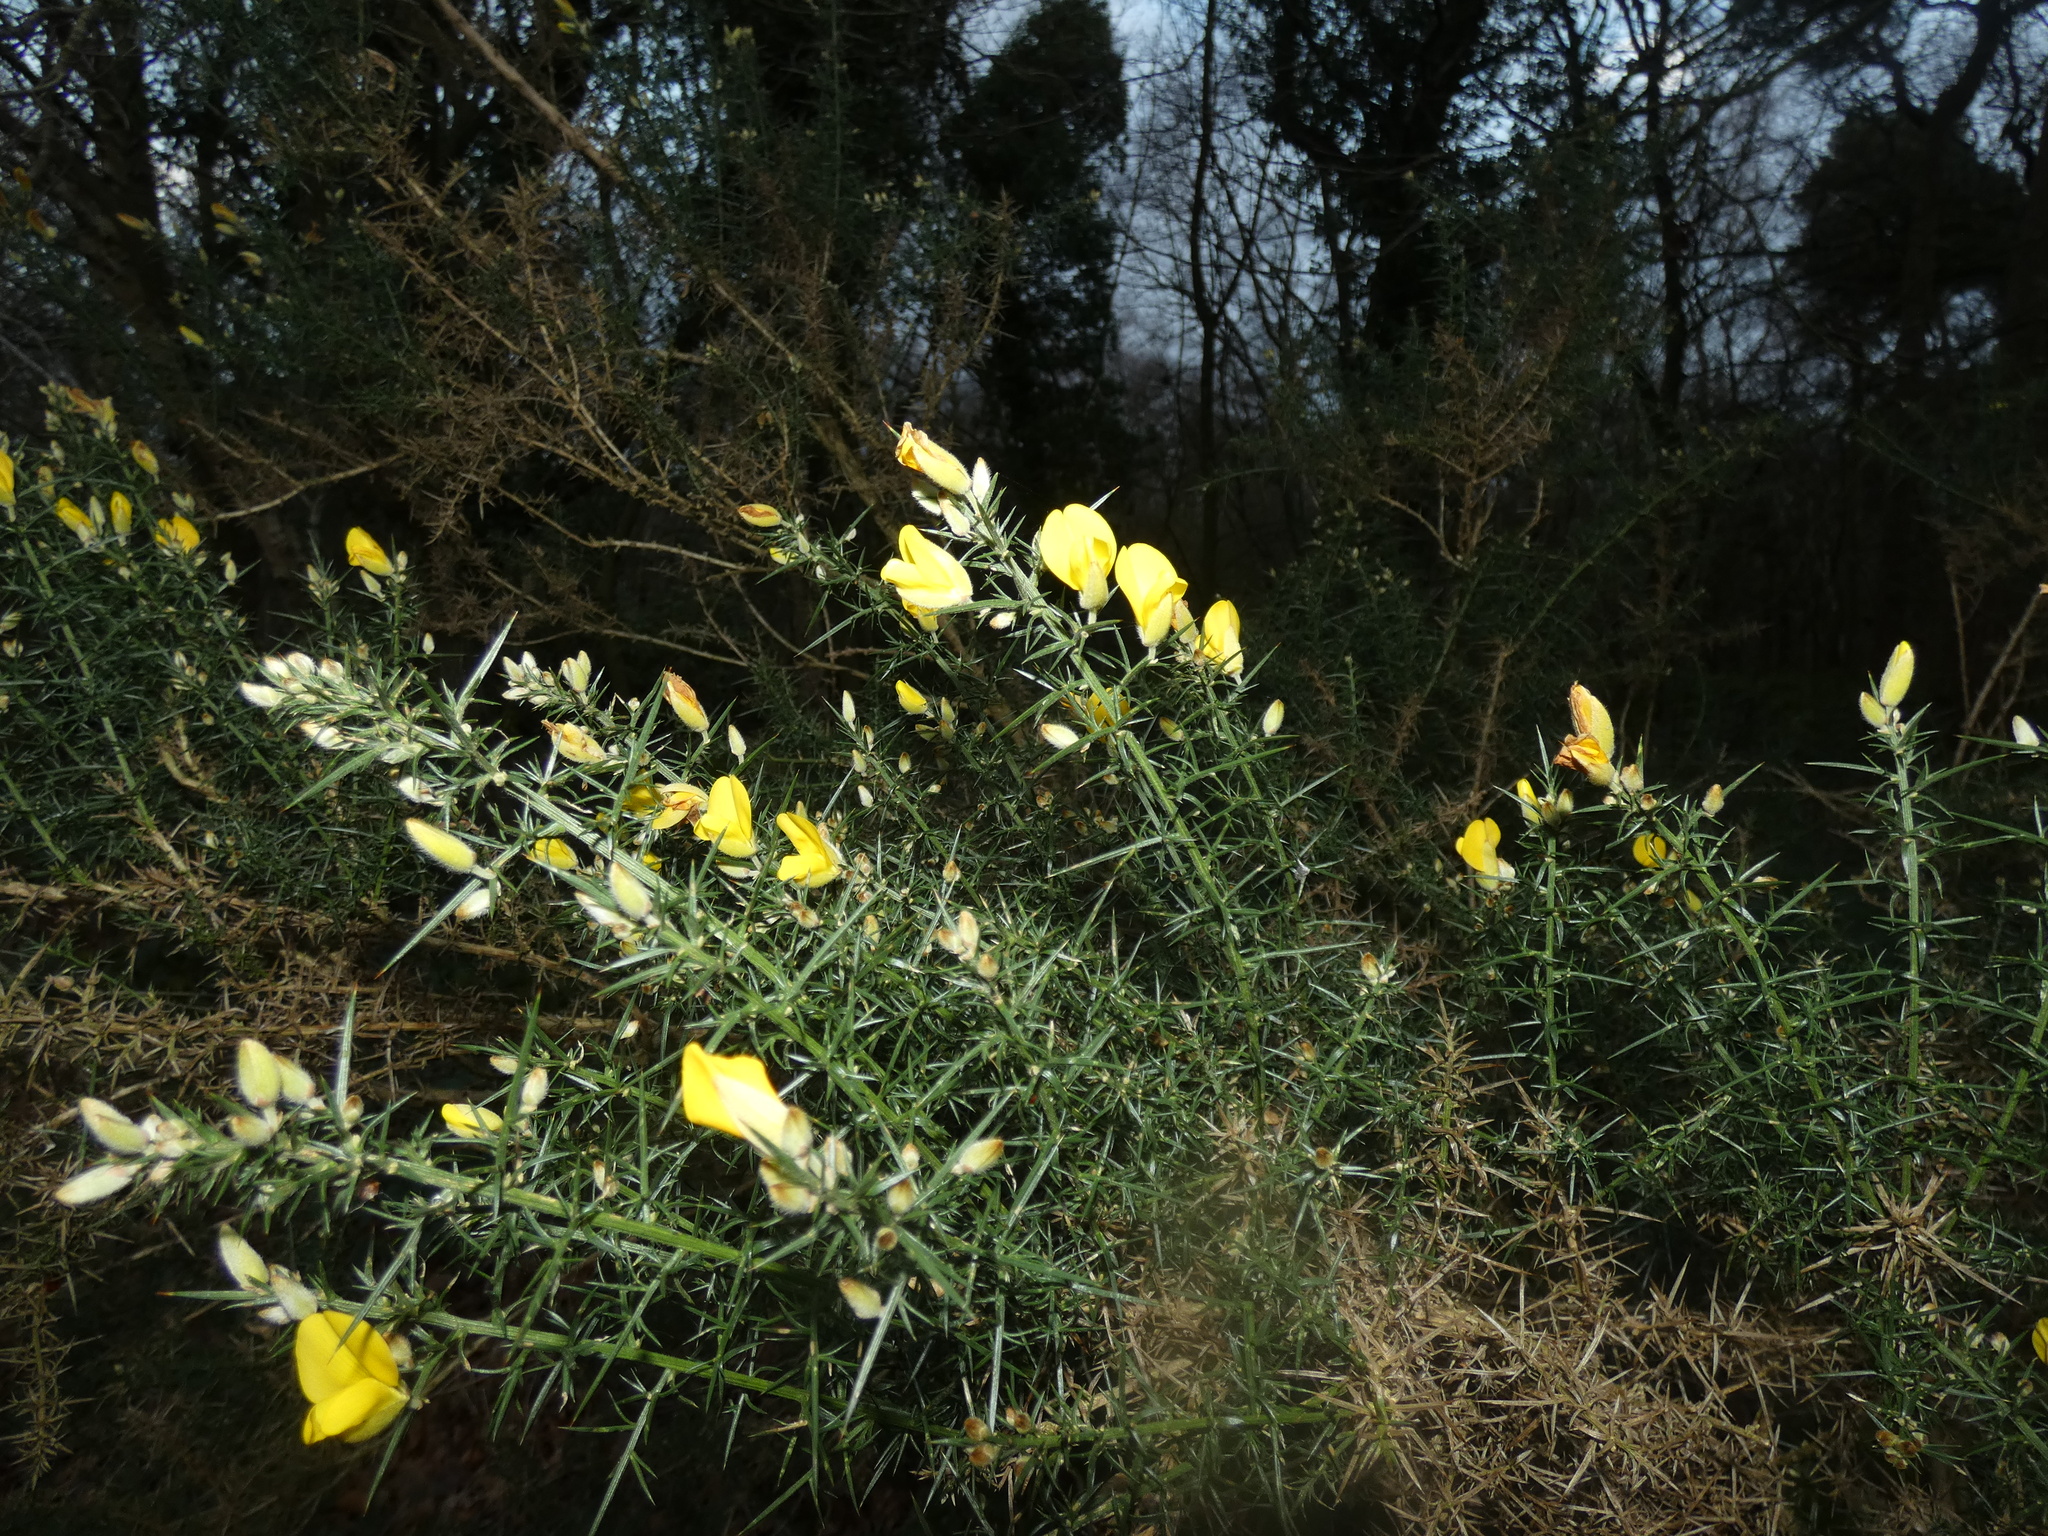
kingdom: Plantae
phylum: Tracheophyta
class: Magnoliopsida
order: Fabales
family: Fabaceae
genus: Ulex
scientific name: Ulex europaeus
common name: Common gorse
